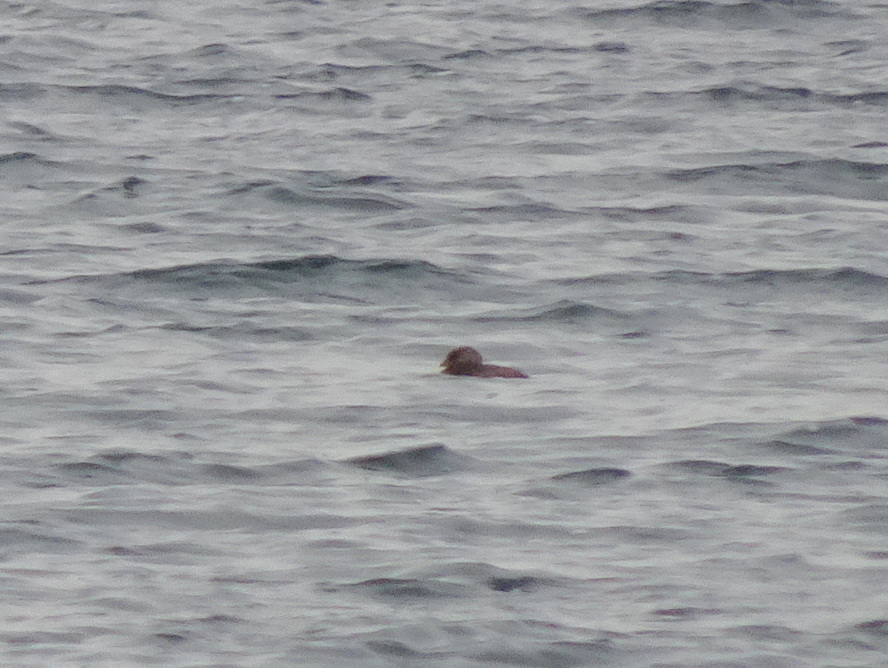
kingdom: Animalia
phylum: Chordata
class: Aves
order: Podicipediformes
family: Podicipedidae
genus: Podilymbus
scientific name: Podilymbus podiceps
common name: Pied-billed grebe
